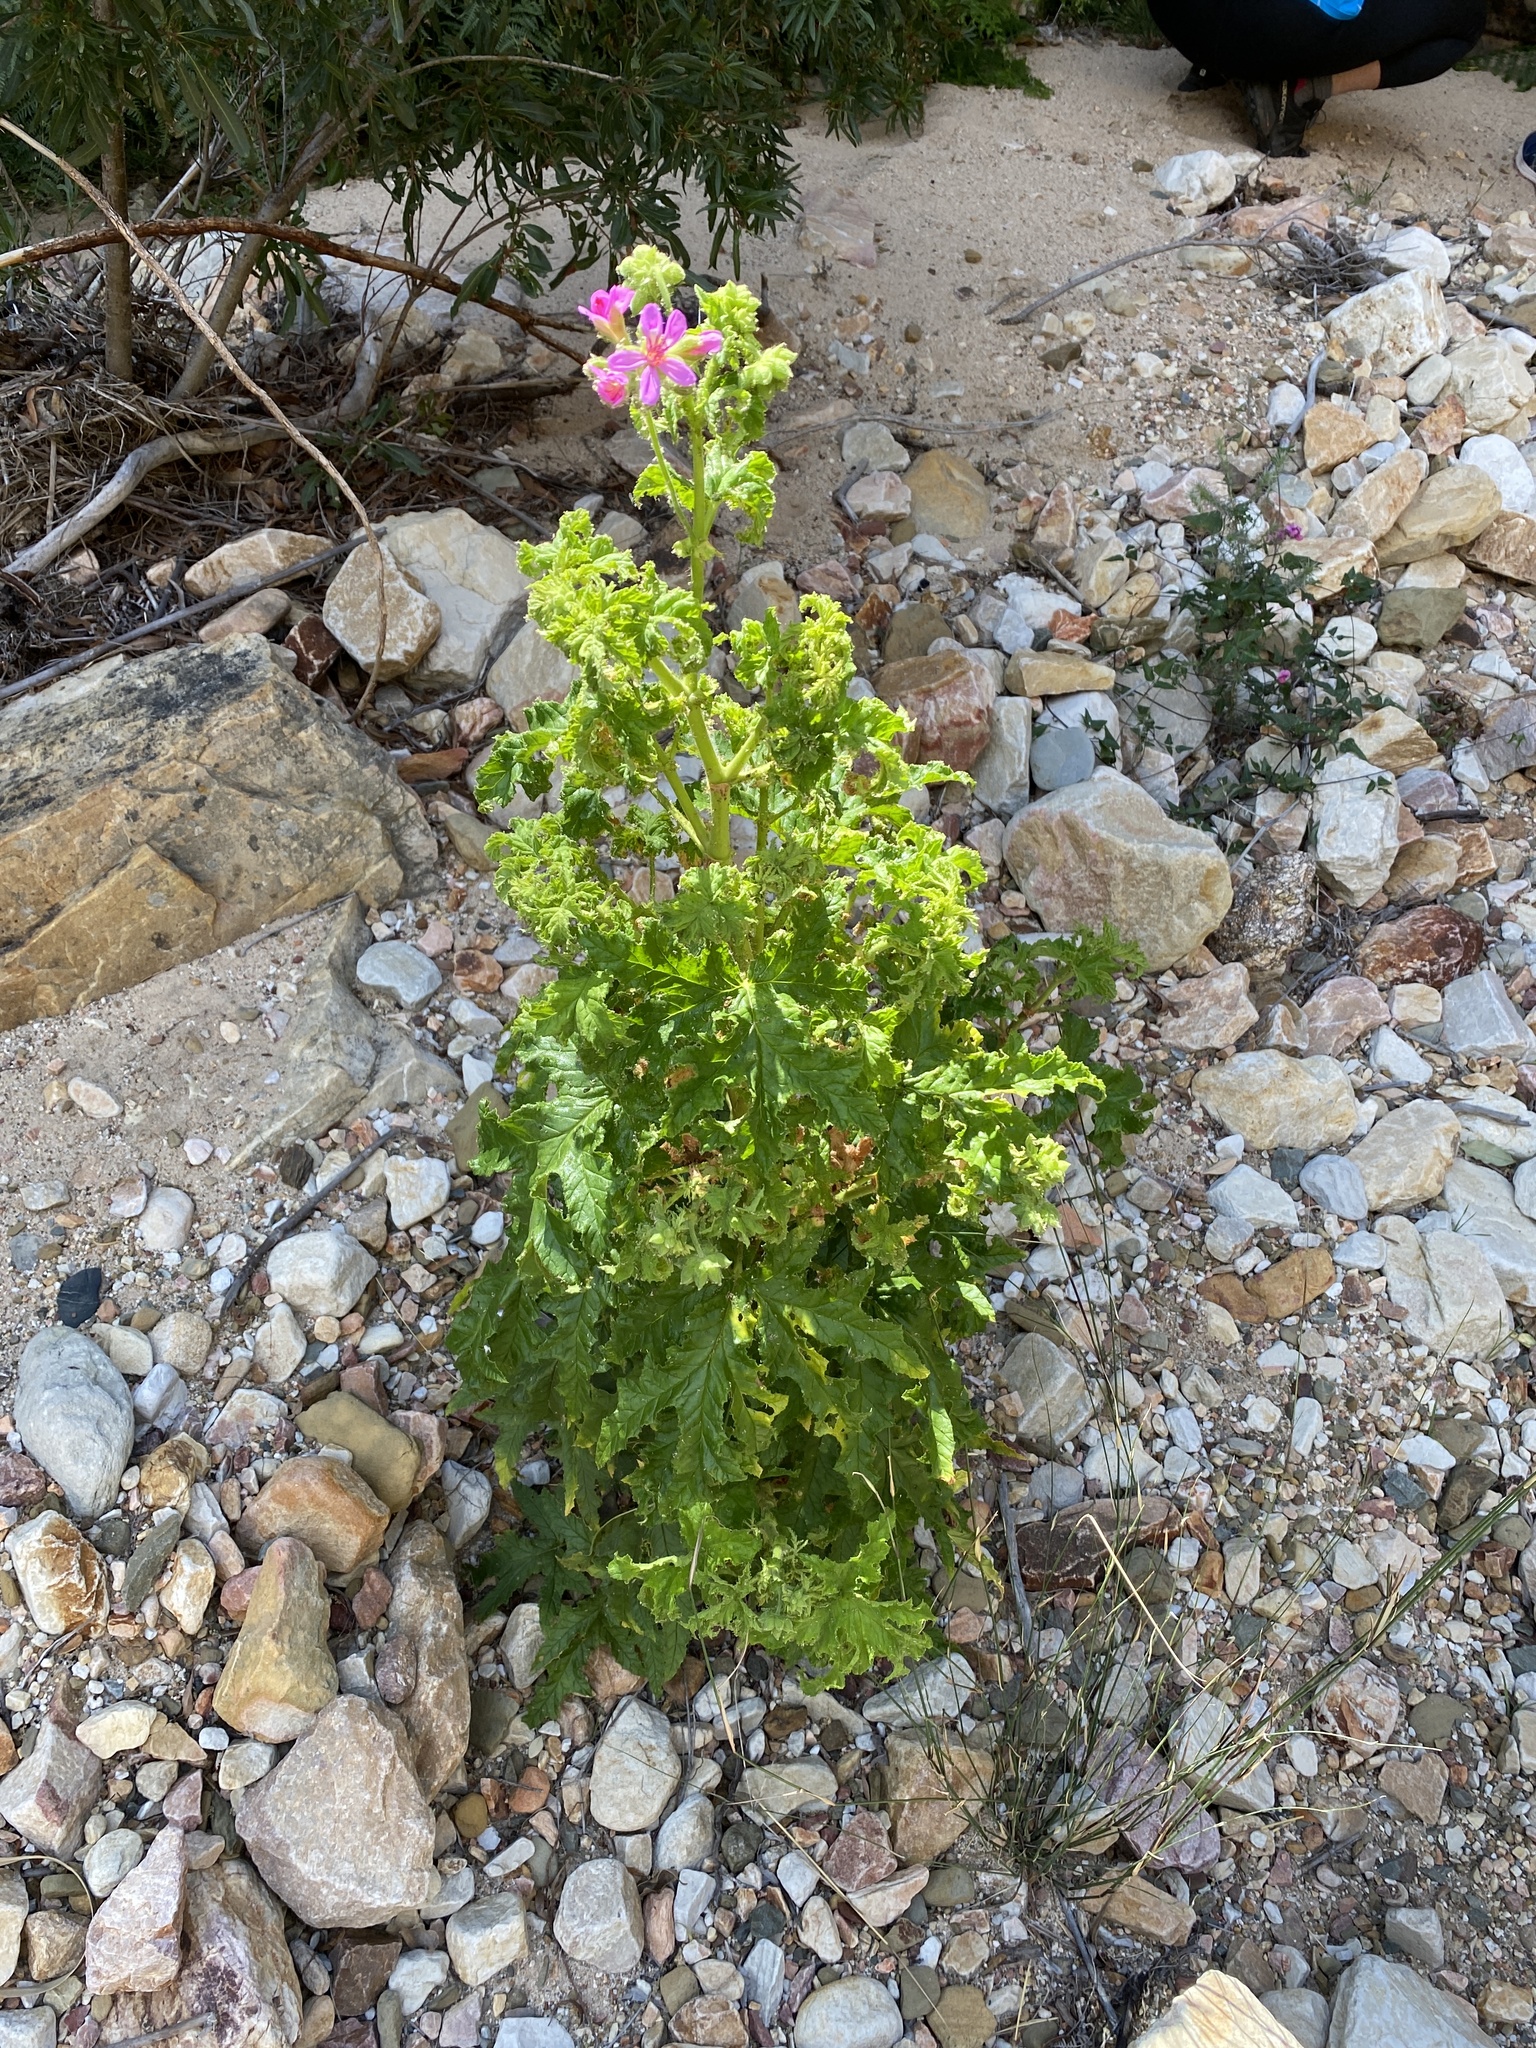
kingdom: Plantae
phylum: Tracheophyta
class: Magnoliopsida
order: Geraniales
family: Geraniaceae
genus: Pelargonium
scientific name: Pelargonium glutinosum
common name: Pheasant-foot geranium
